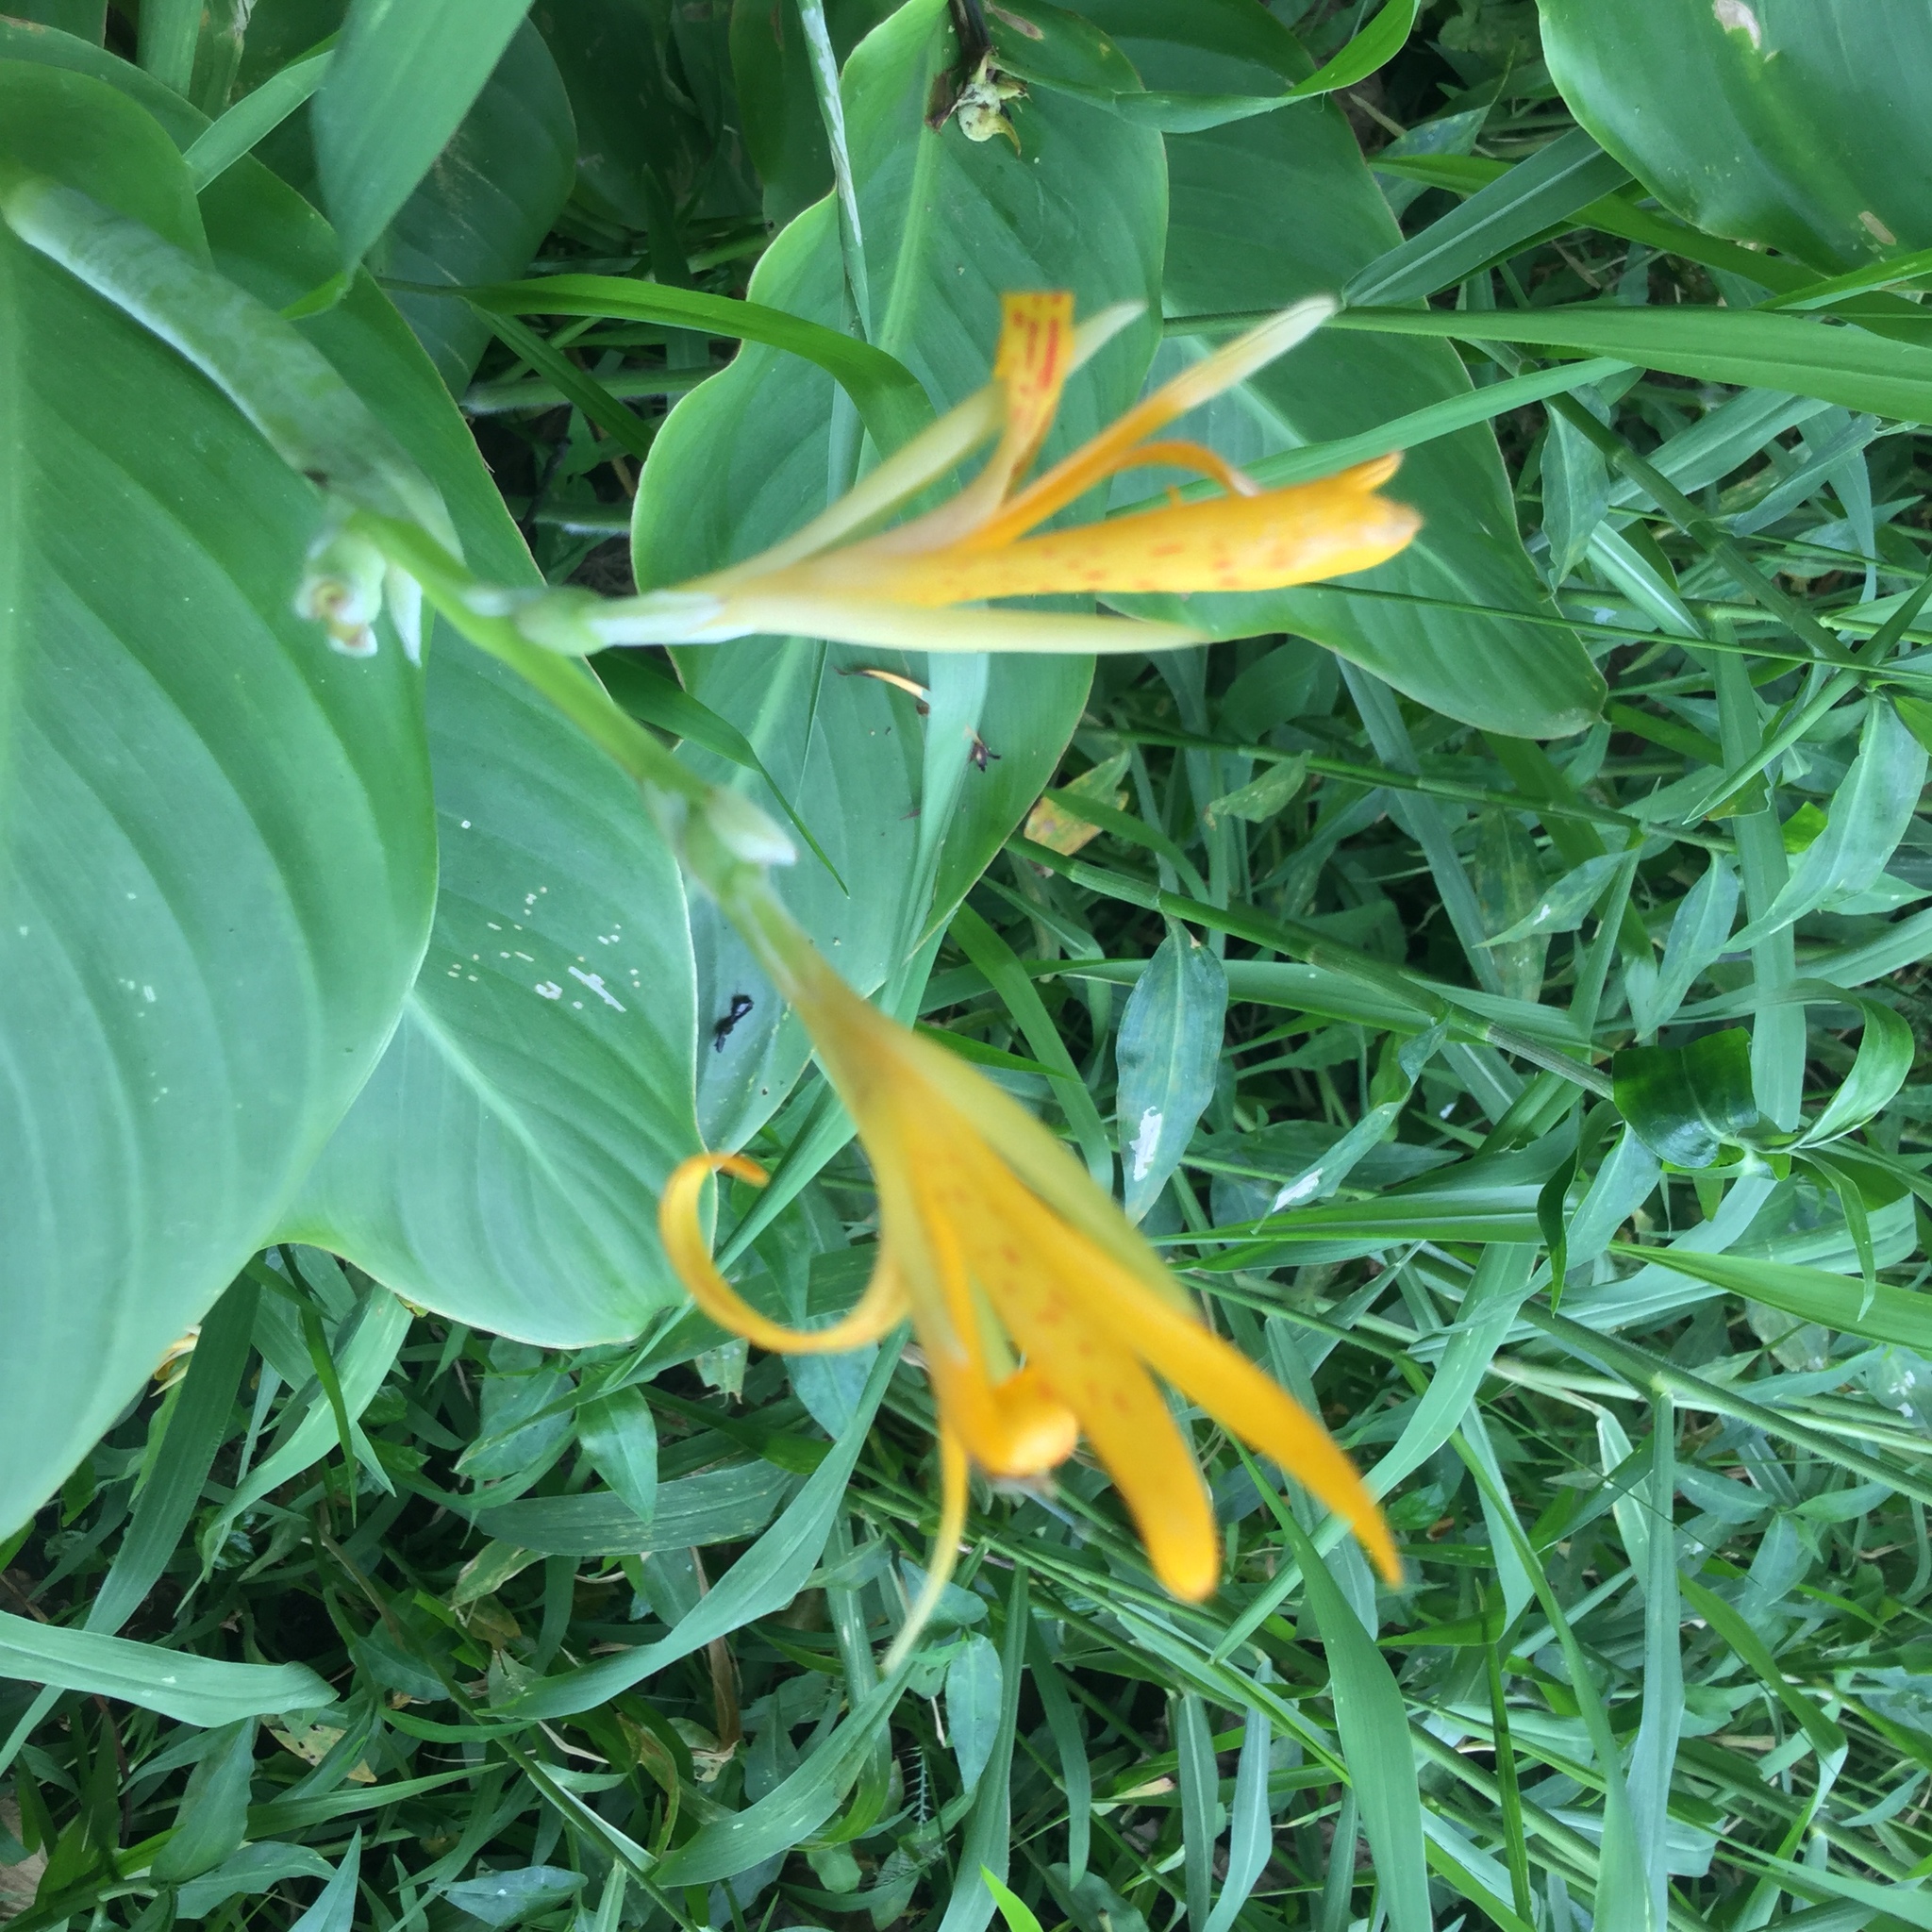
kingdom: Plantae
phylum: Tracheophyta
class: Liliopsida
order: Zingiberales
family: Cannaceae
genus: Canna
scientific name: Canna indica
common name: Indian shot
